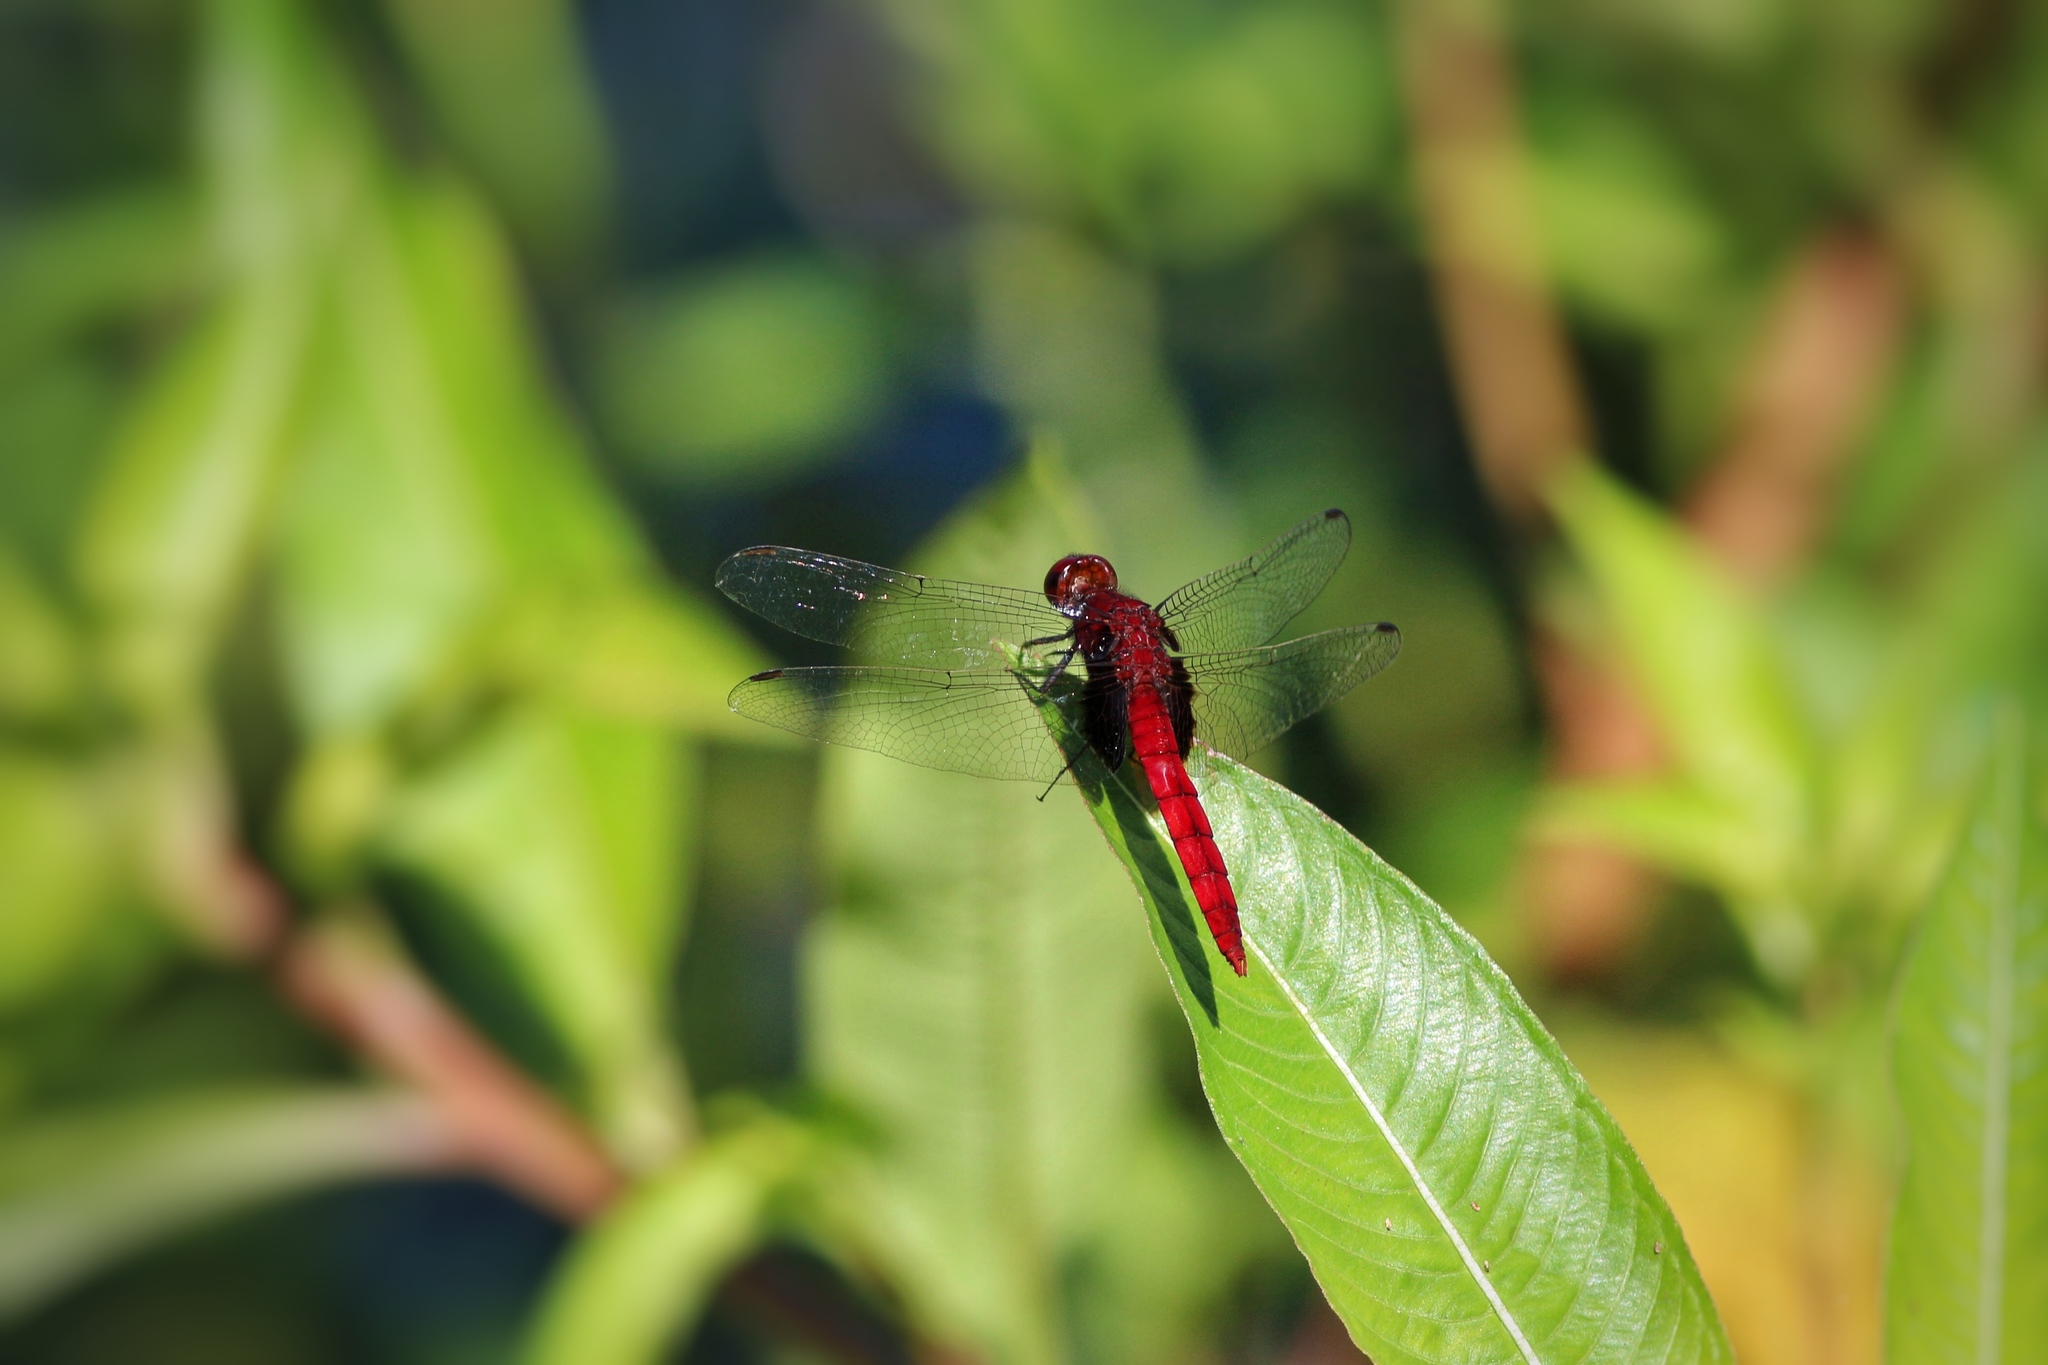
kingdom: Animalia
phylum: Arthropoda
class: Insecta
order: Odonata
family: Libellulidae
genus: Erythemis
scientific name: Erythemis mithroides
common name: Claret pondhawk
